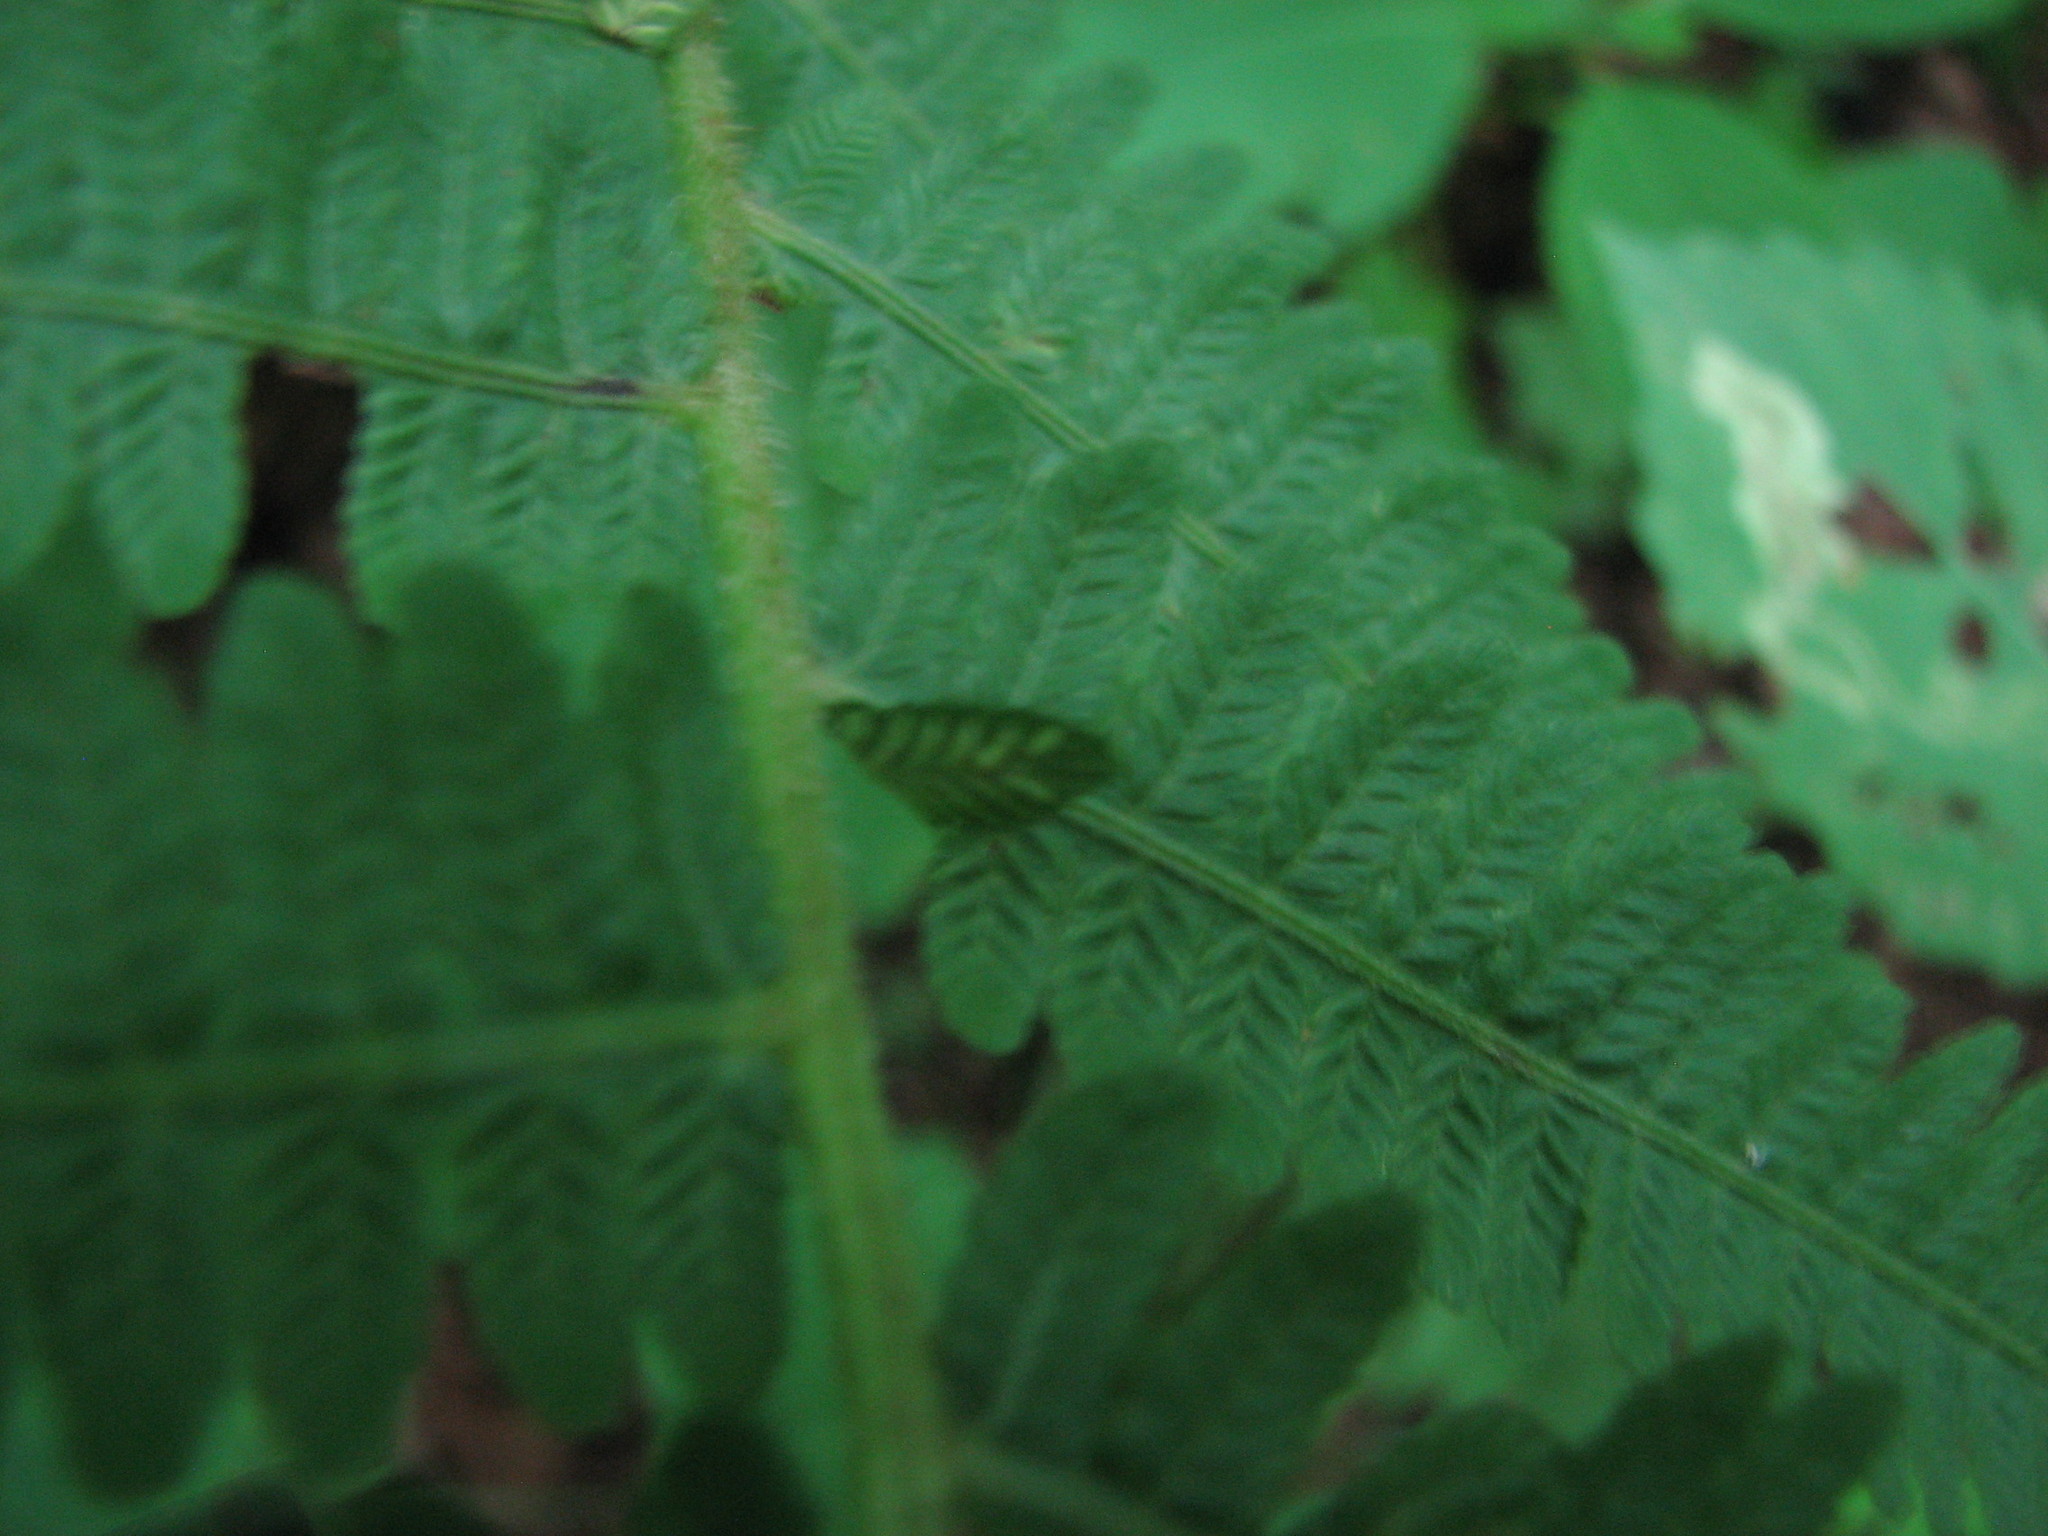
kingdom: Plantae
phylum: Tracheophyta
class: Polypodiopsida
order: Polypodiales
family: Athyriaceae
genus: Deparia
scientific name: Deparia acrostichoides
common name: Silver false spleenwort
